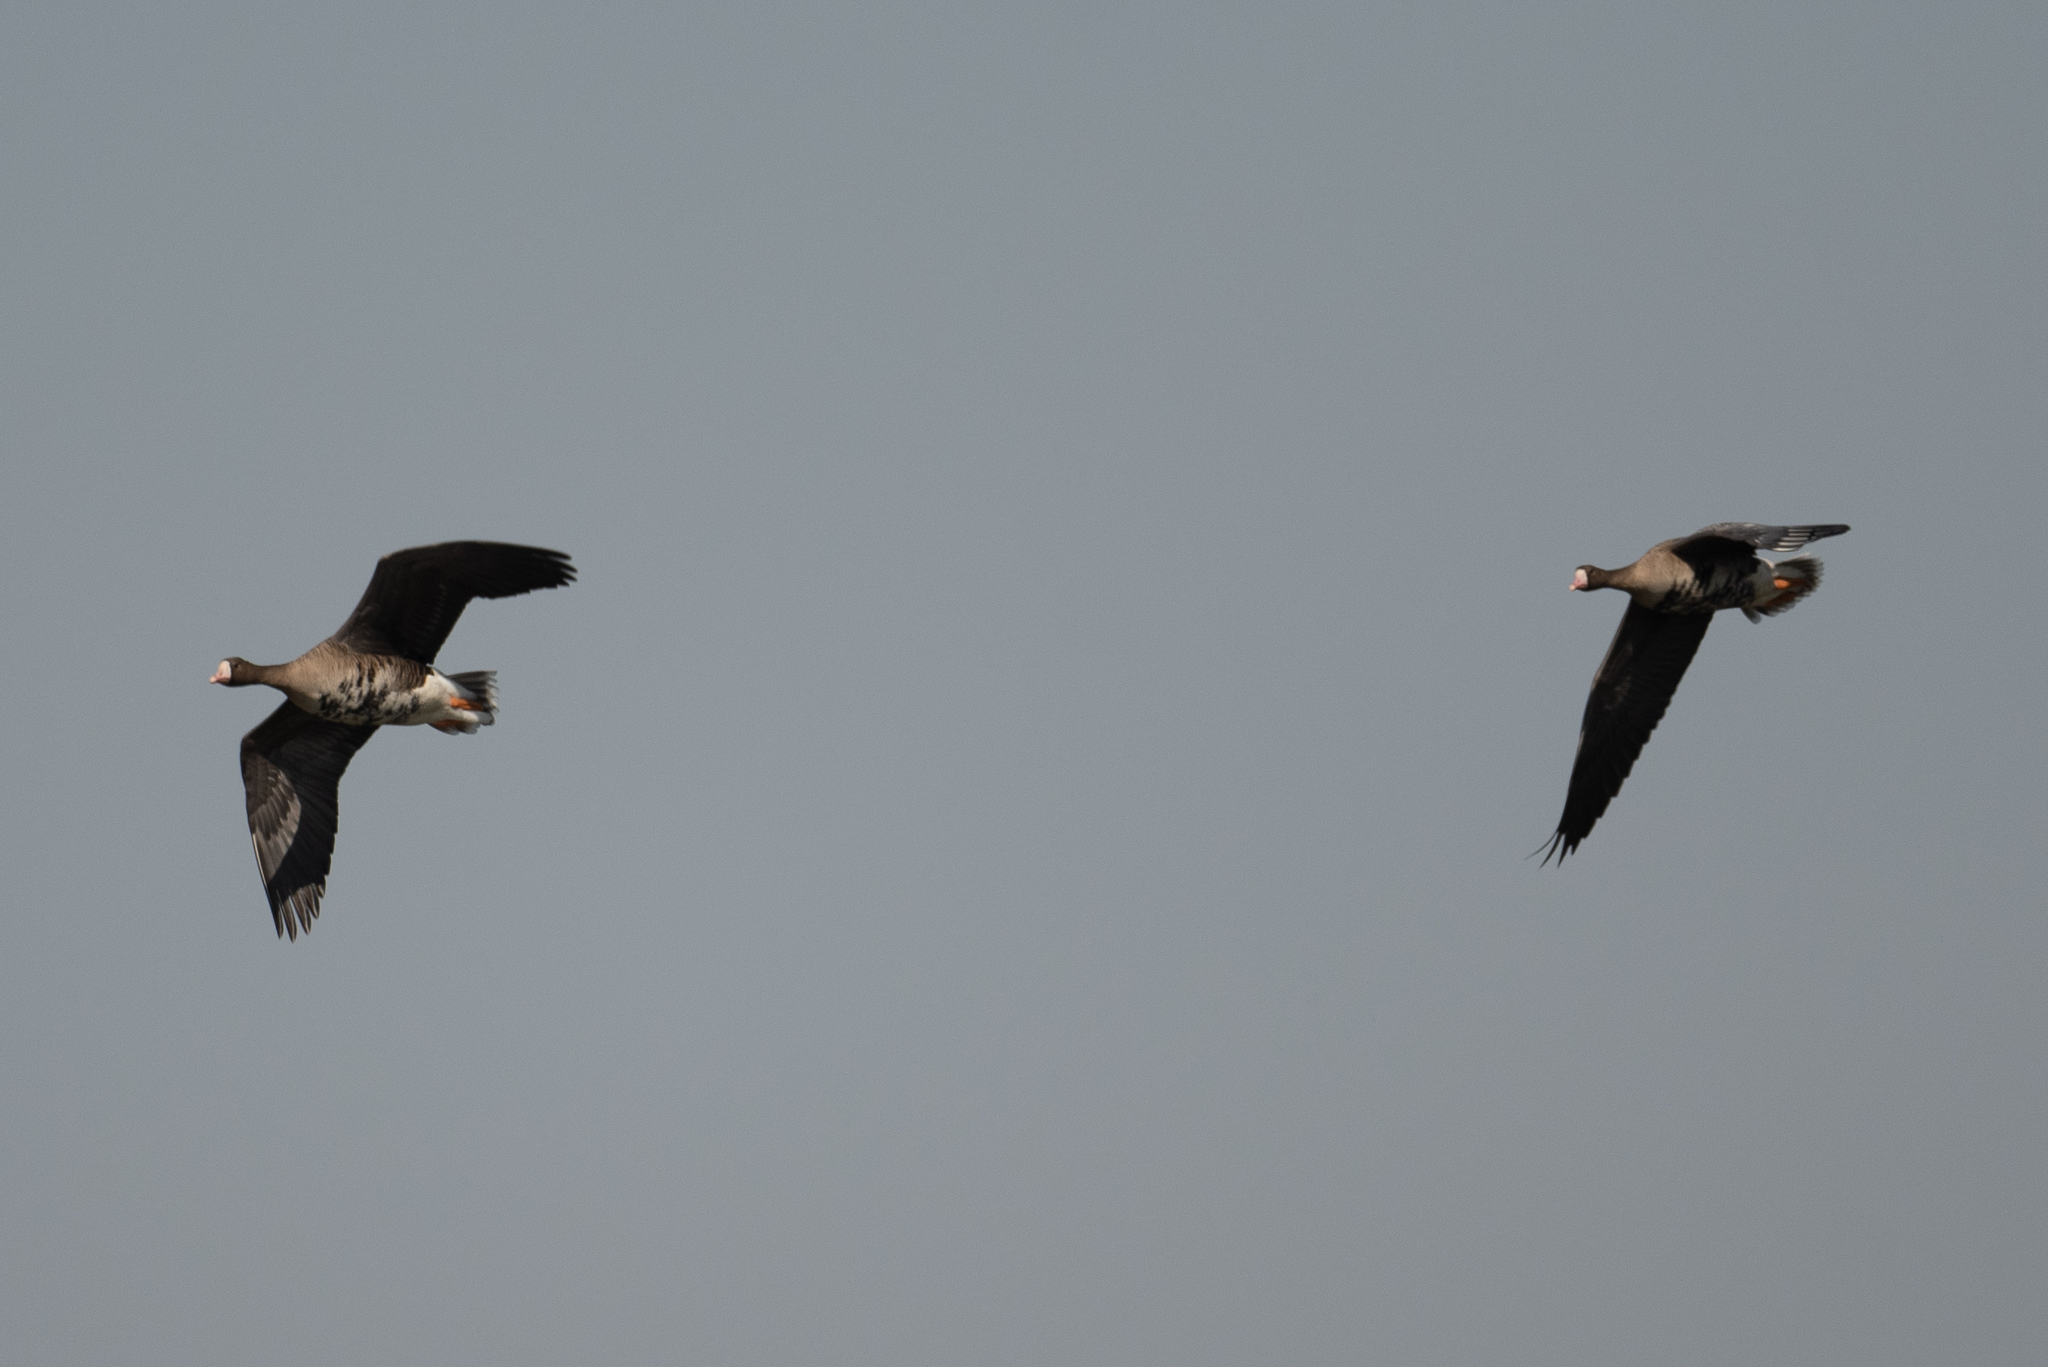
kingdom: Animalia
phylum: Chordata
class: Aves
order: Anseriformes
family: Anatidae
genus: Anser
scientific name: Anser albifrons
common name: Greater white-fronted goose
